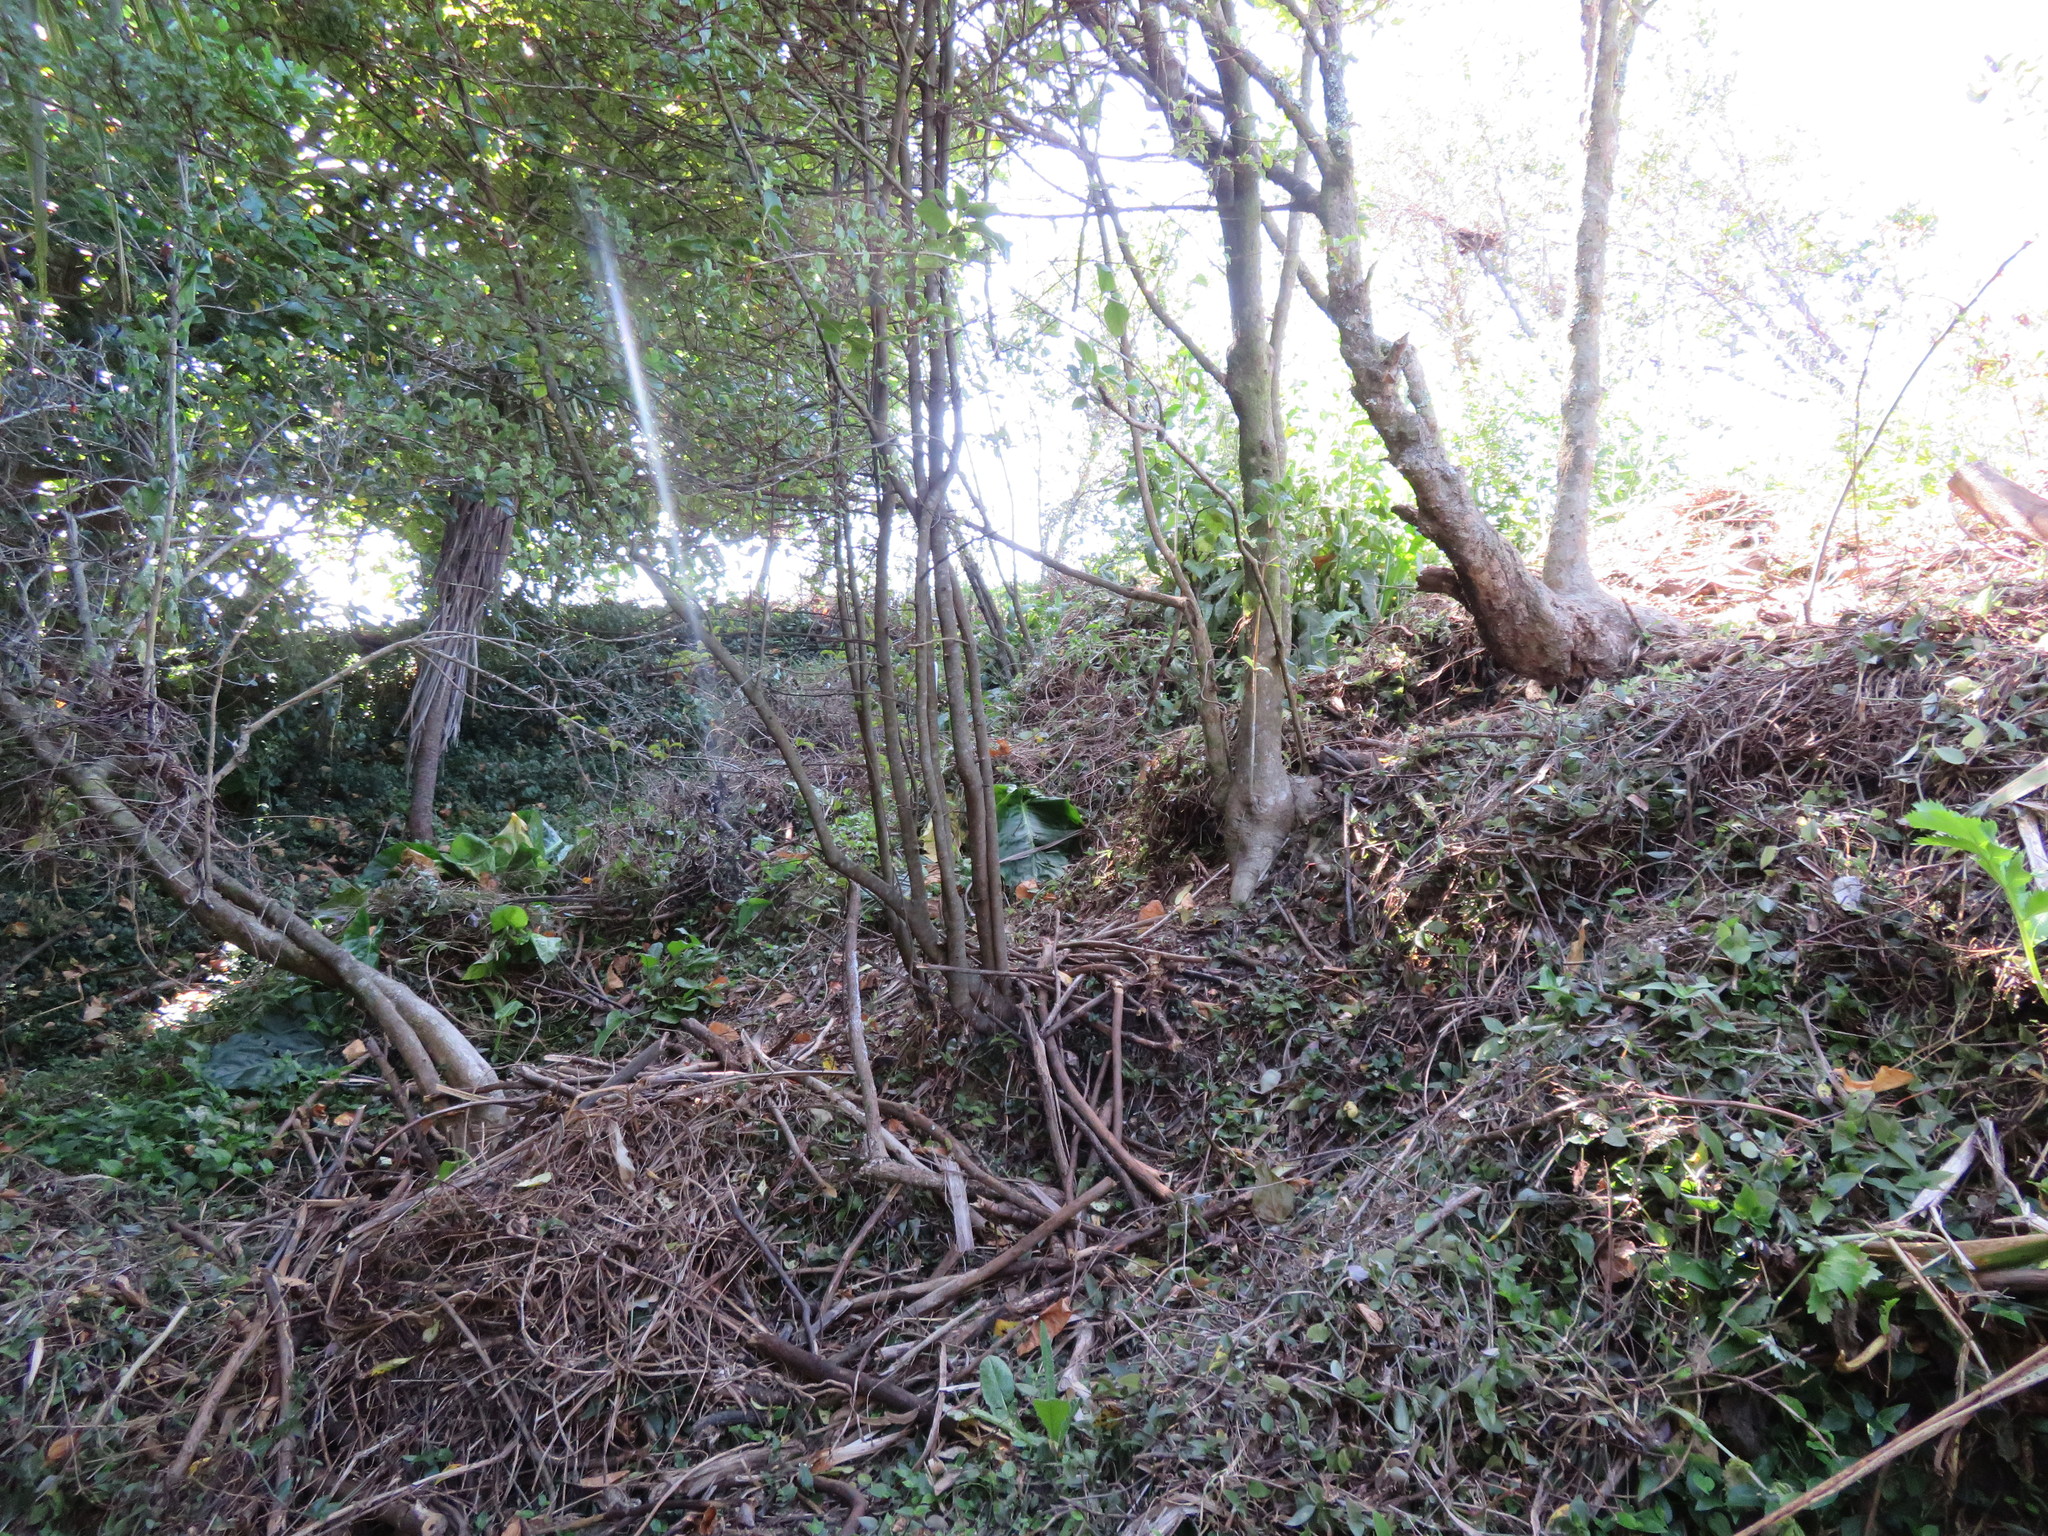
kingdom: Plantae
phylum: Tracheophyta
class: Magnoliopsida
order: Geraniales
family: Melianthaceae
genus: Melianthus
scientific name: Melianthus major
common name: Honey-flower
